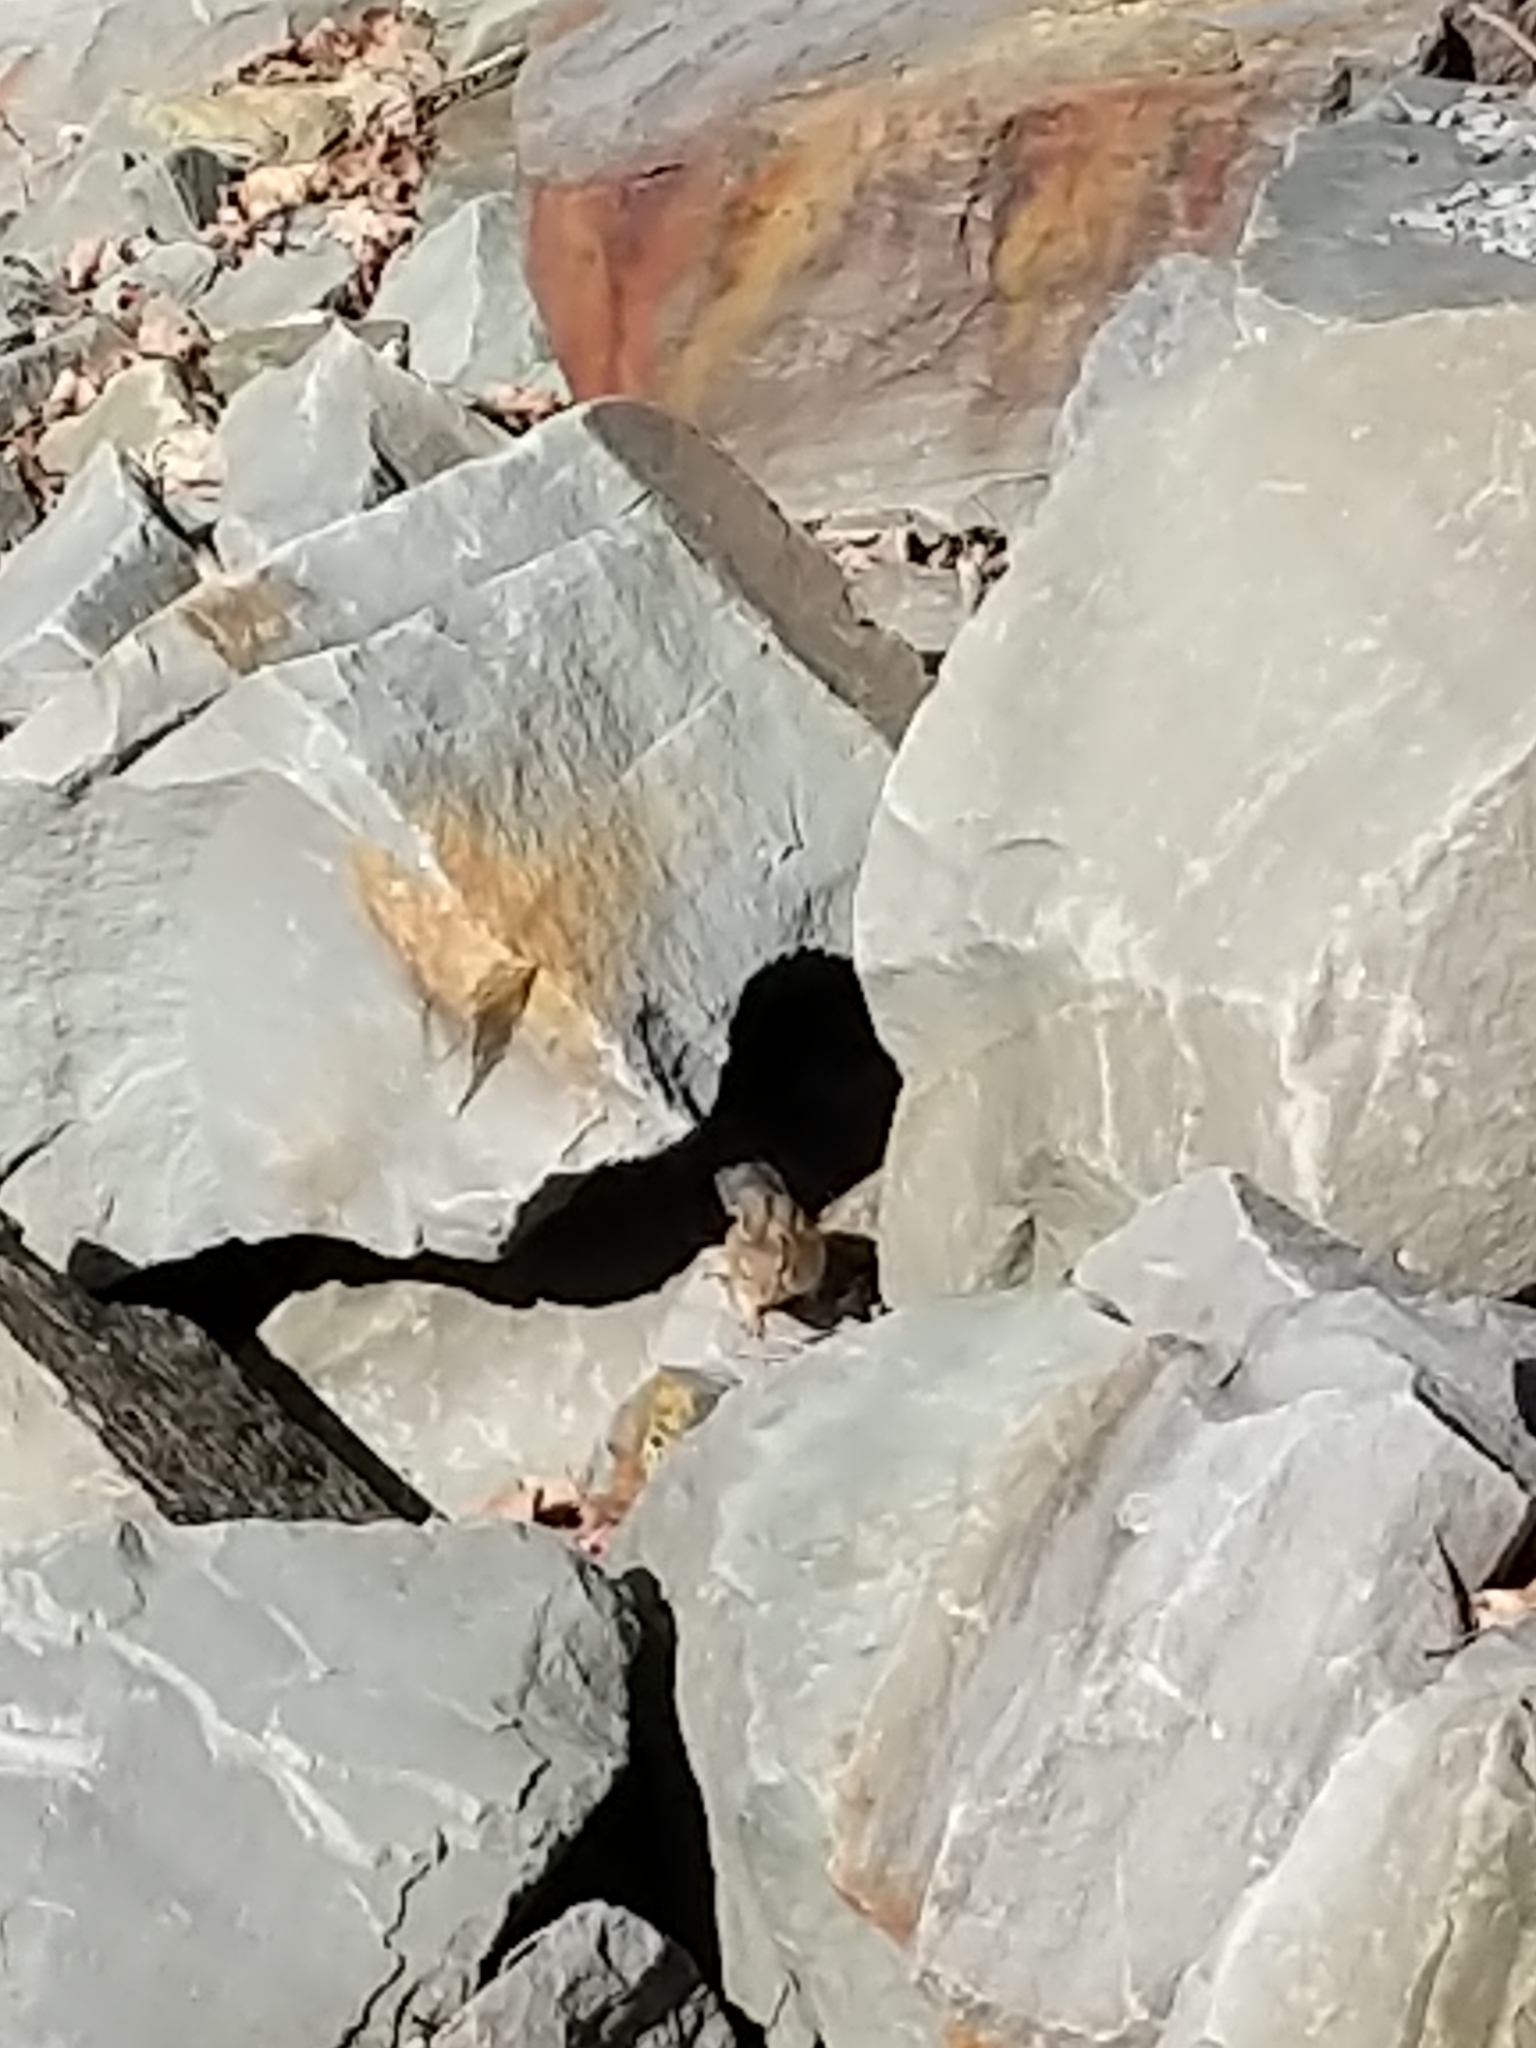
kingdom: Animalia
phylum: Chordata
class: Mammalia
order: Rodentia
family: Sciuridae
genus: Tamias
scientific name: Tamias striatus
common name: Eastern chipmunk
